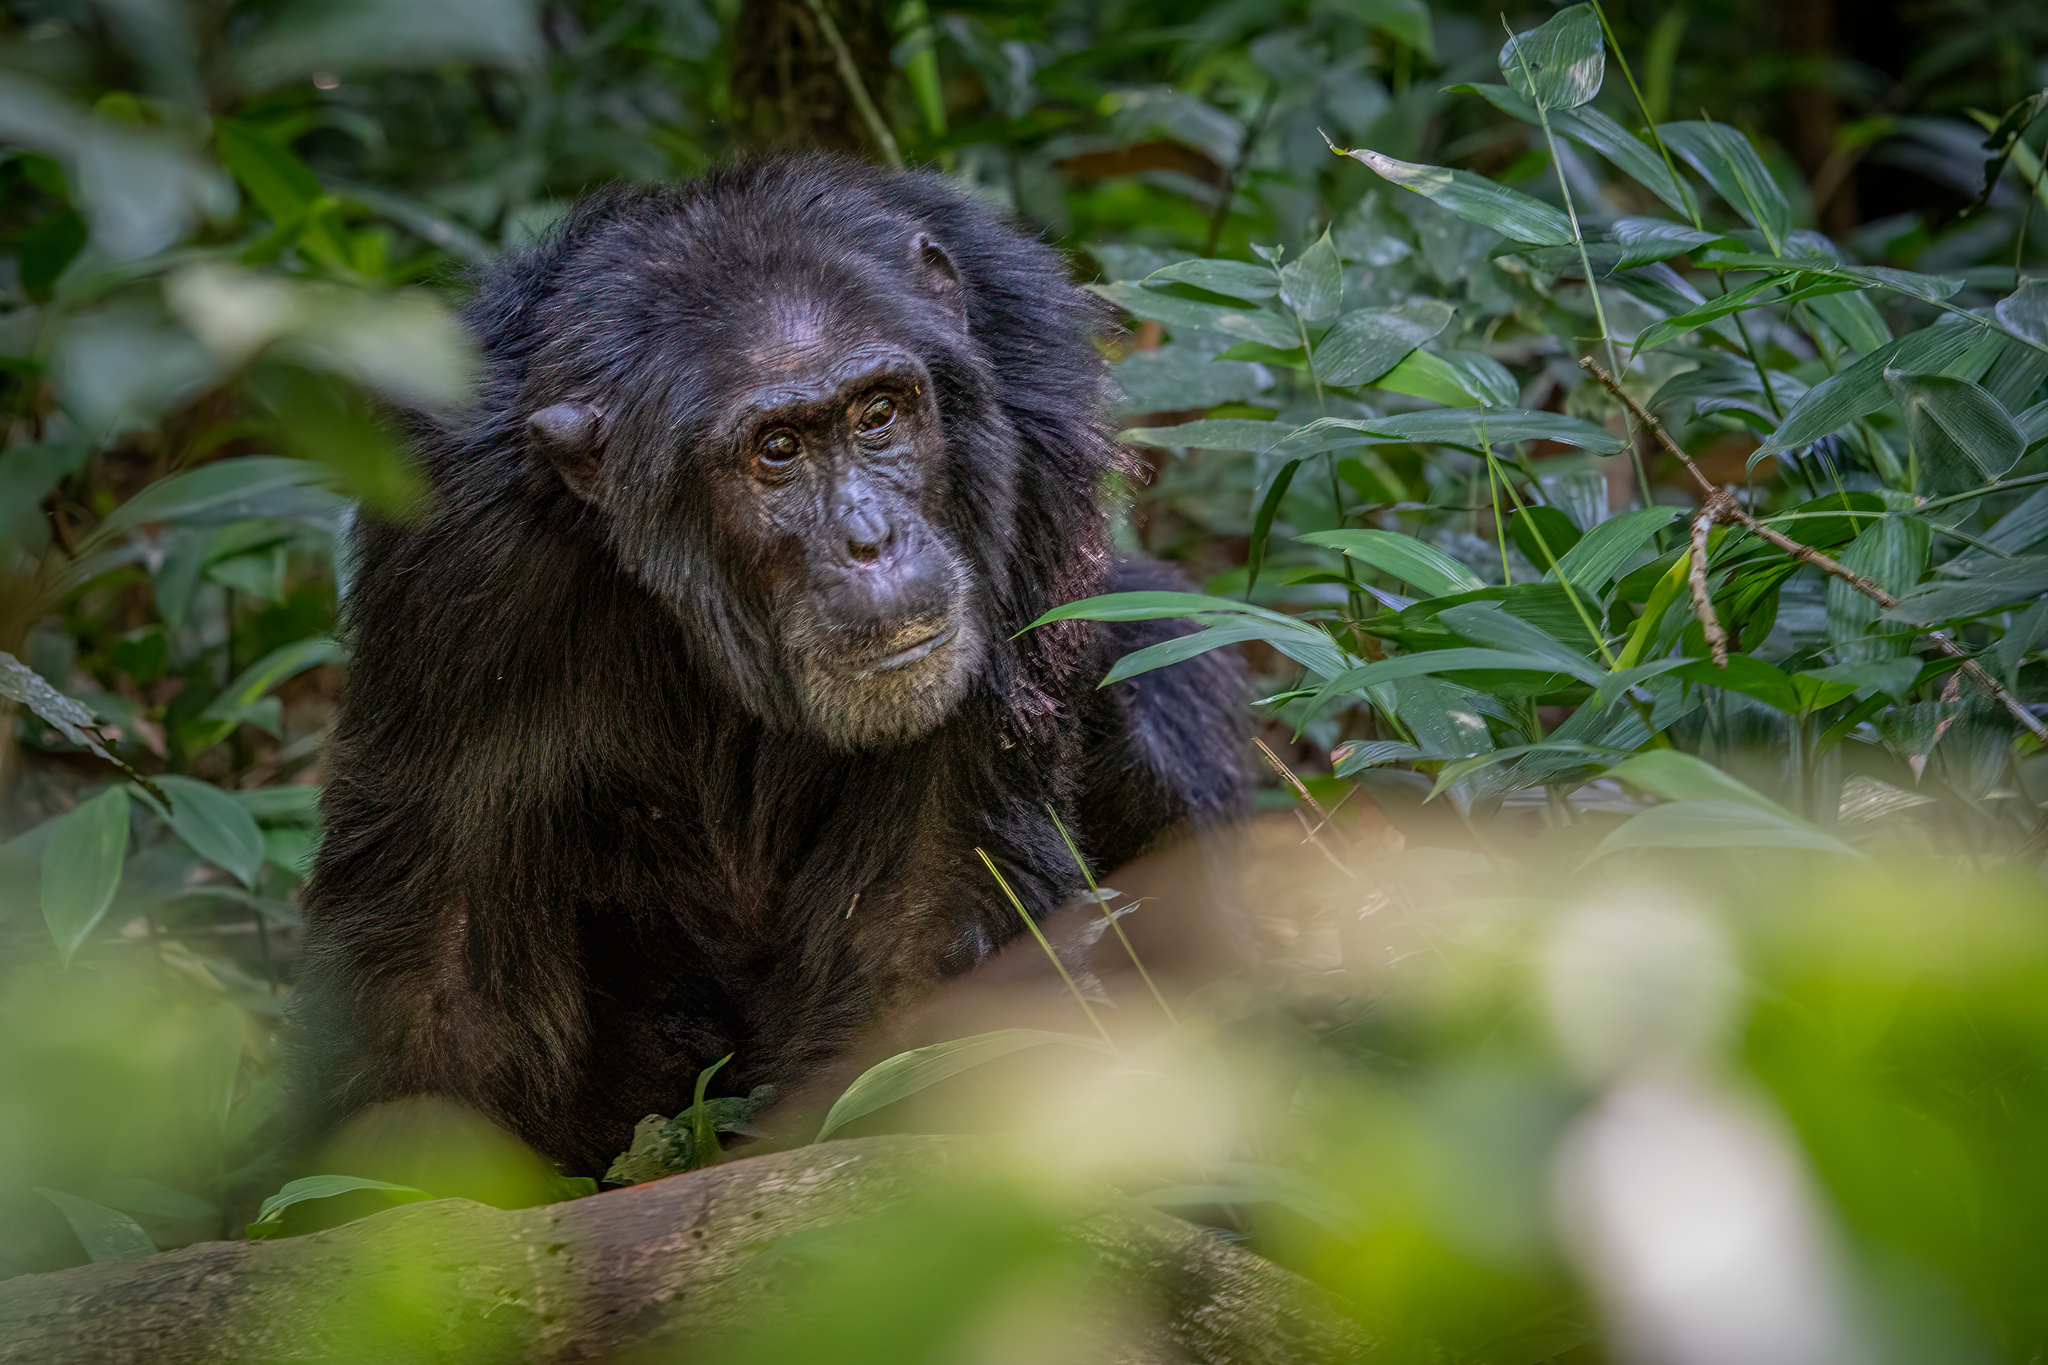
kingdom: Animalia
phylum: Chordata
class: Mammalia
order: Primates
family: Hominidae
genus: Pan
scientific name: Pan troglodytes
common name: Chimpanzee
